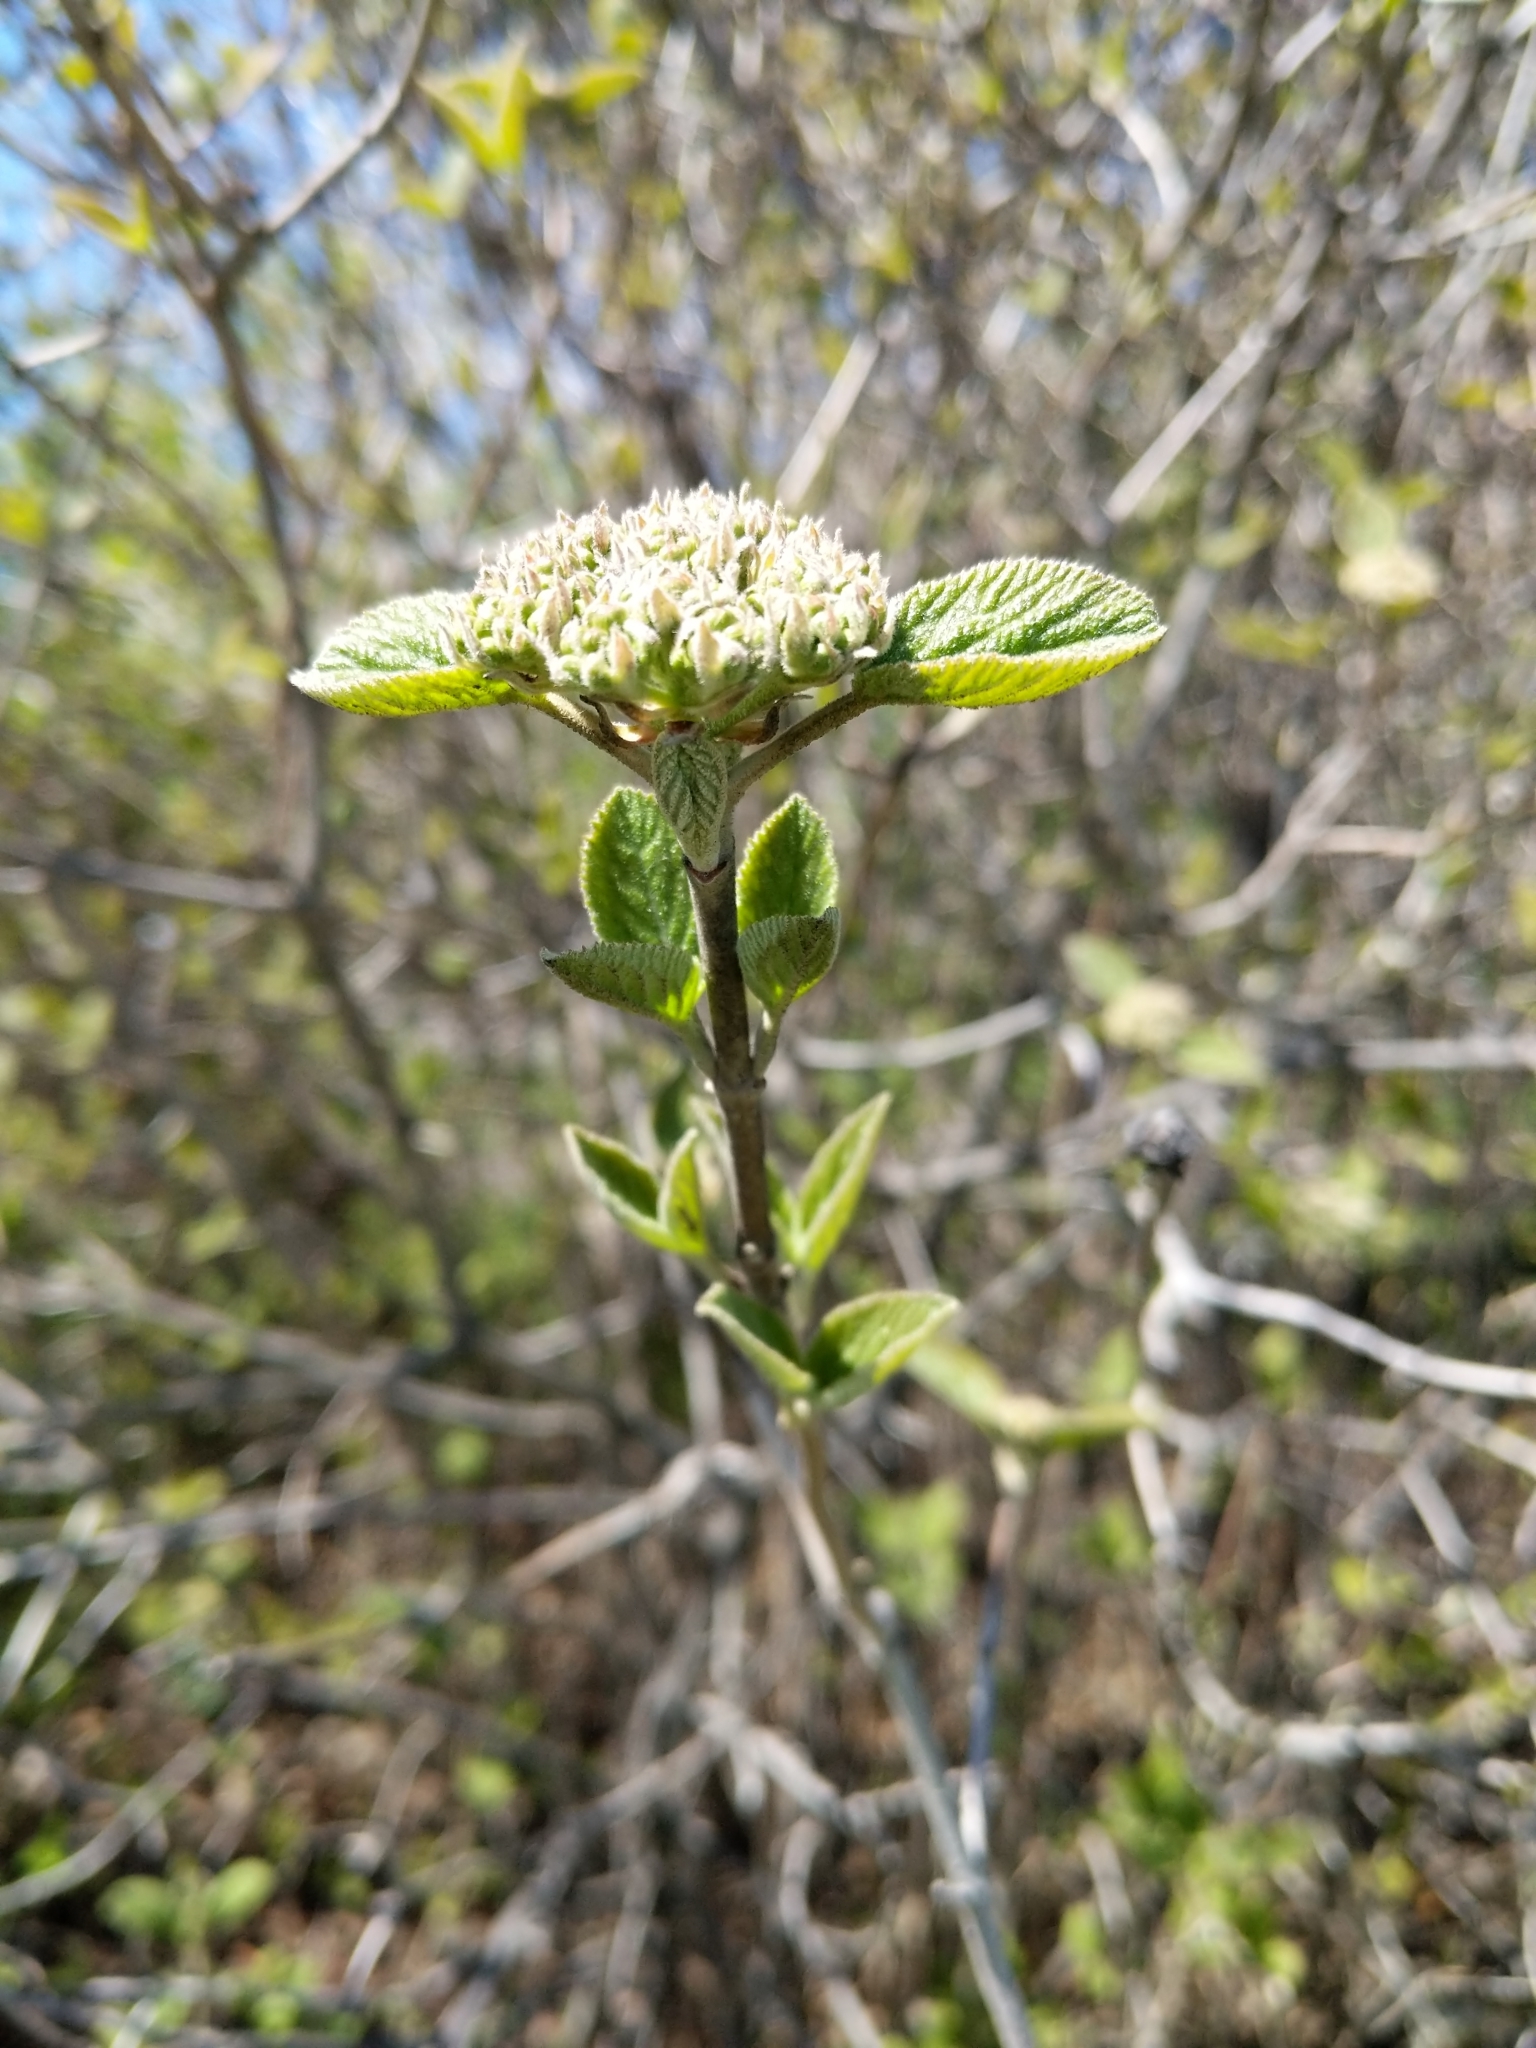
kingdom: Plantae
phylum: Tracheophyta
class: Magnoliopsida
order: Dipsacales
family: Viburnaceae
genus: Viburnum
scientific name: Viburnum lantana
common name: Wayfaring tree
